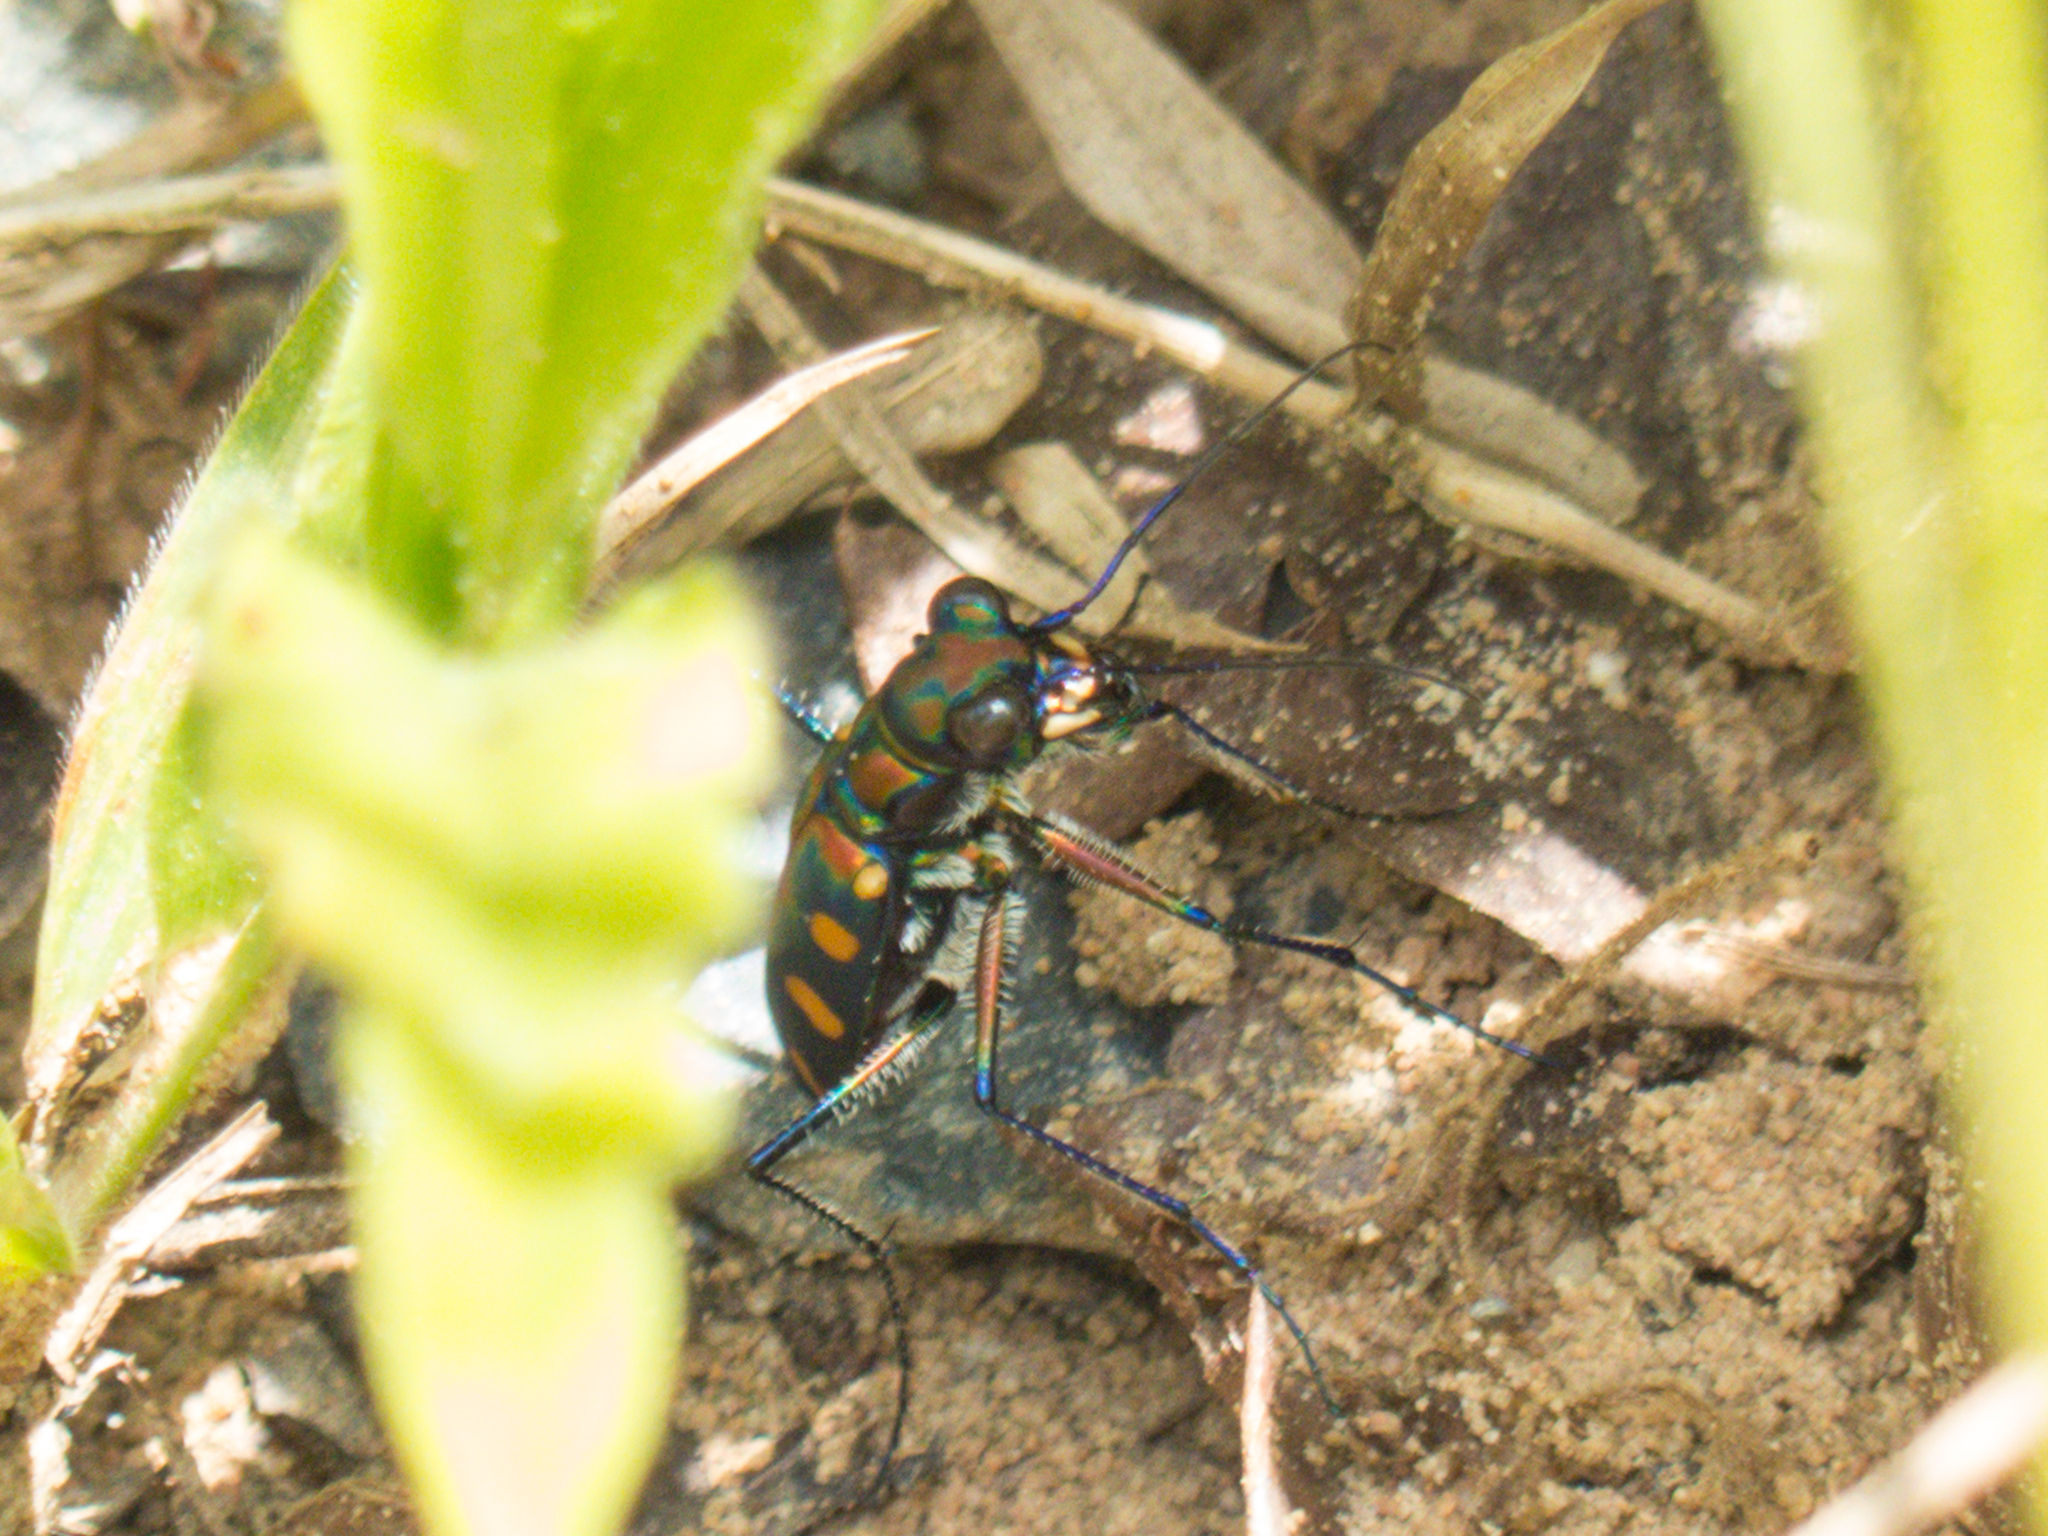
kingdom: Animalia
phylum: Arthropoda
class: Insecta
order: Coleoptera
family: Carabidae
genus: Cicindela
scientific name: Cicindela juxtata
